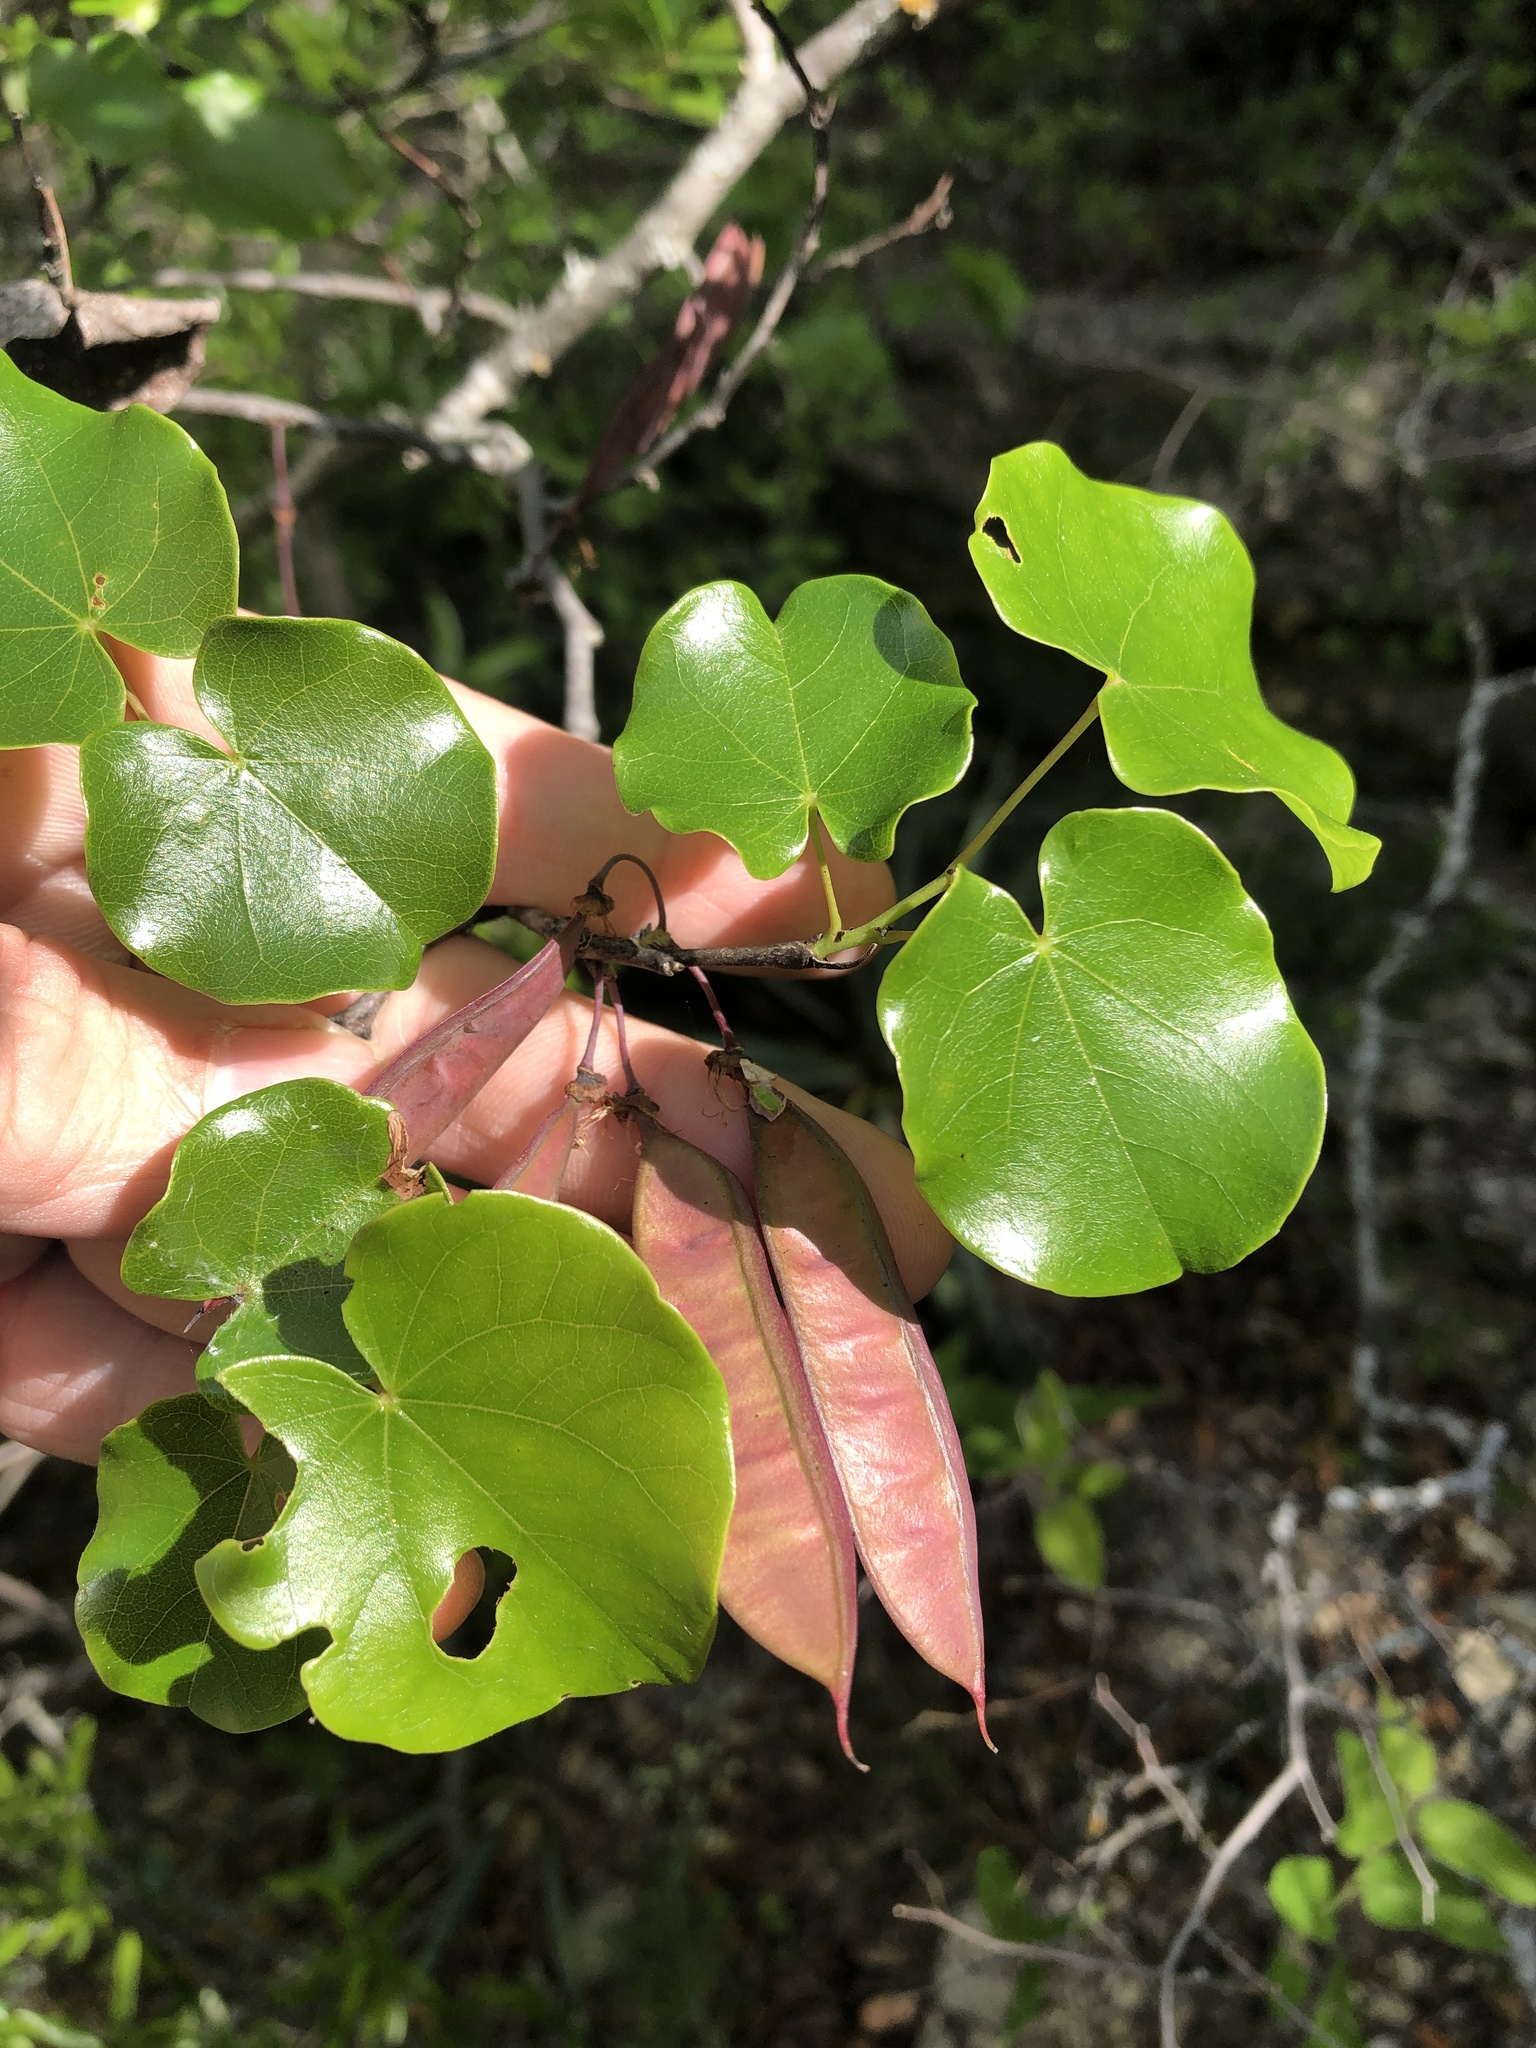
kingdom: Plantae
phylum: Tracheophyta
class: Magnoliopsida
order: Fabales
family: Fabaceae
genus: Cercis
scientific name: Cercis canadensis
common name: Eastern redbud
